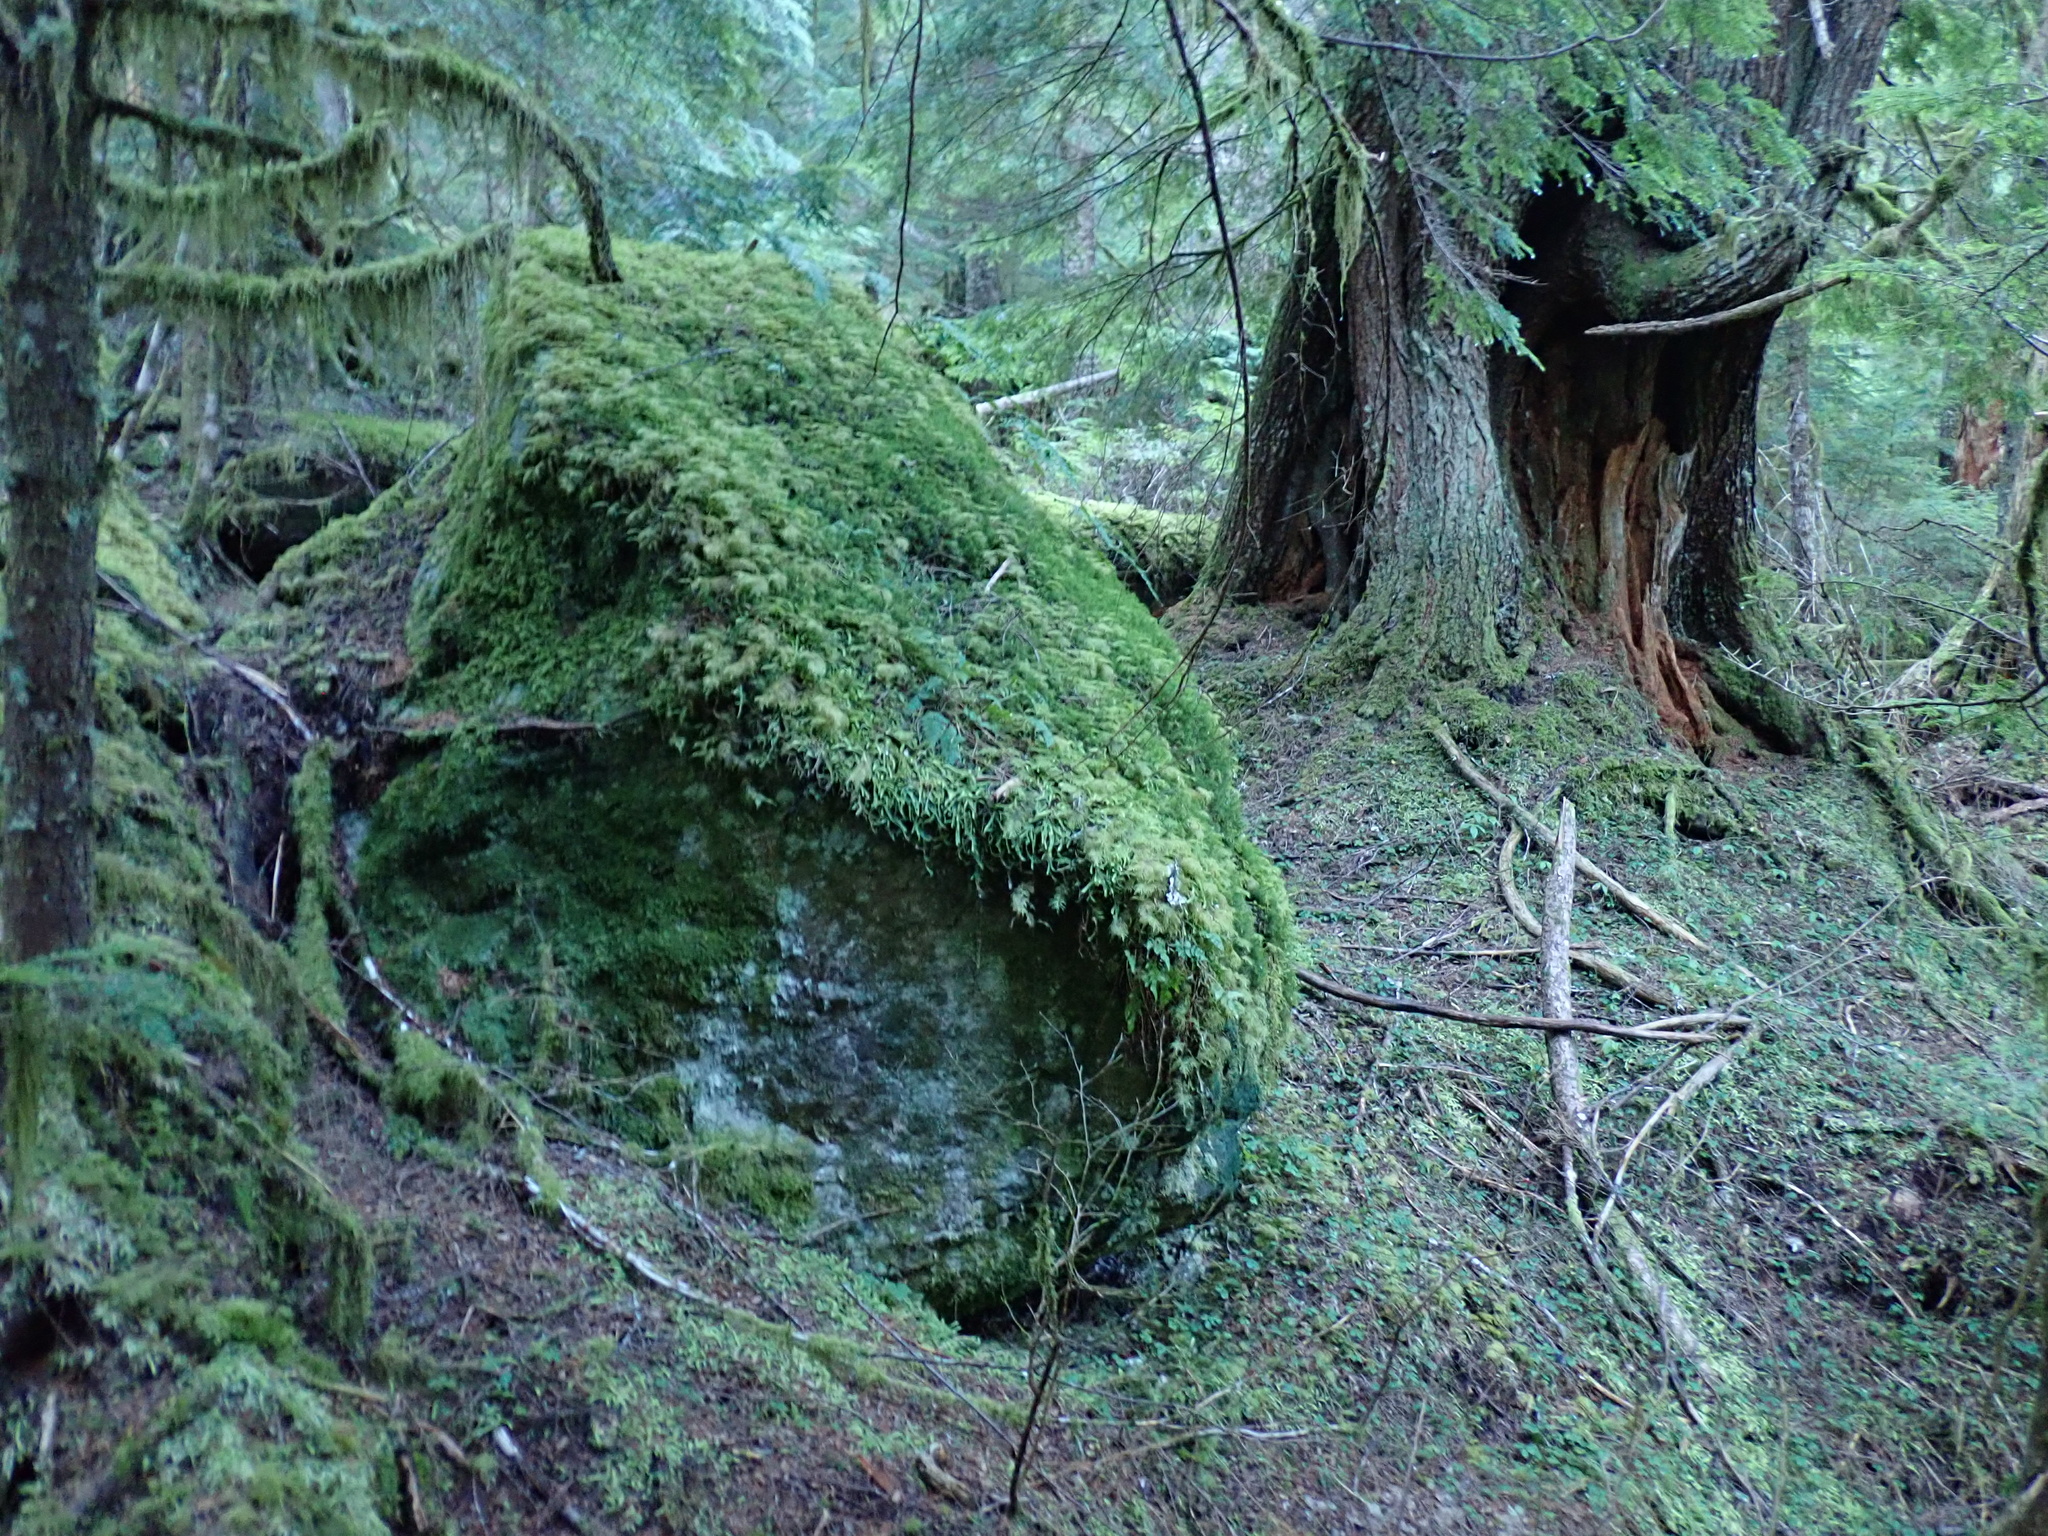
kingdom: Plantae
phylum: Bryophyta
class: Polytrichopsida
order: Polytrichales
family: Polytrichaceae
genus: Polytrichastrum
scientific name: Polytrichastrum alpinum
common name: Alpine haircap
